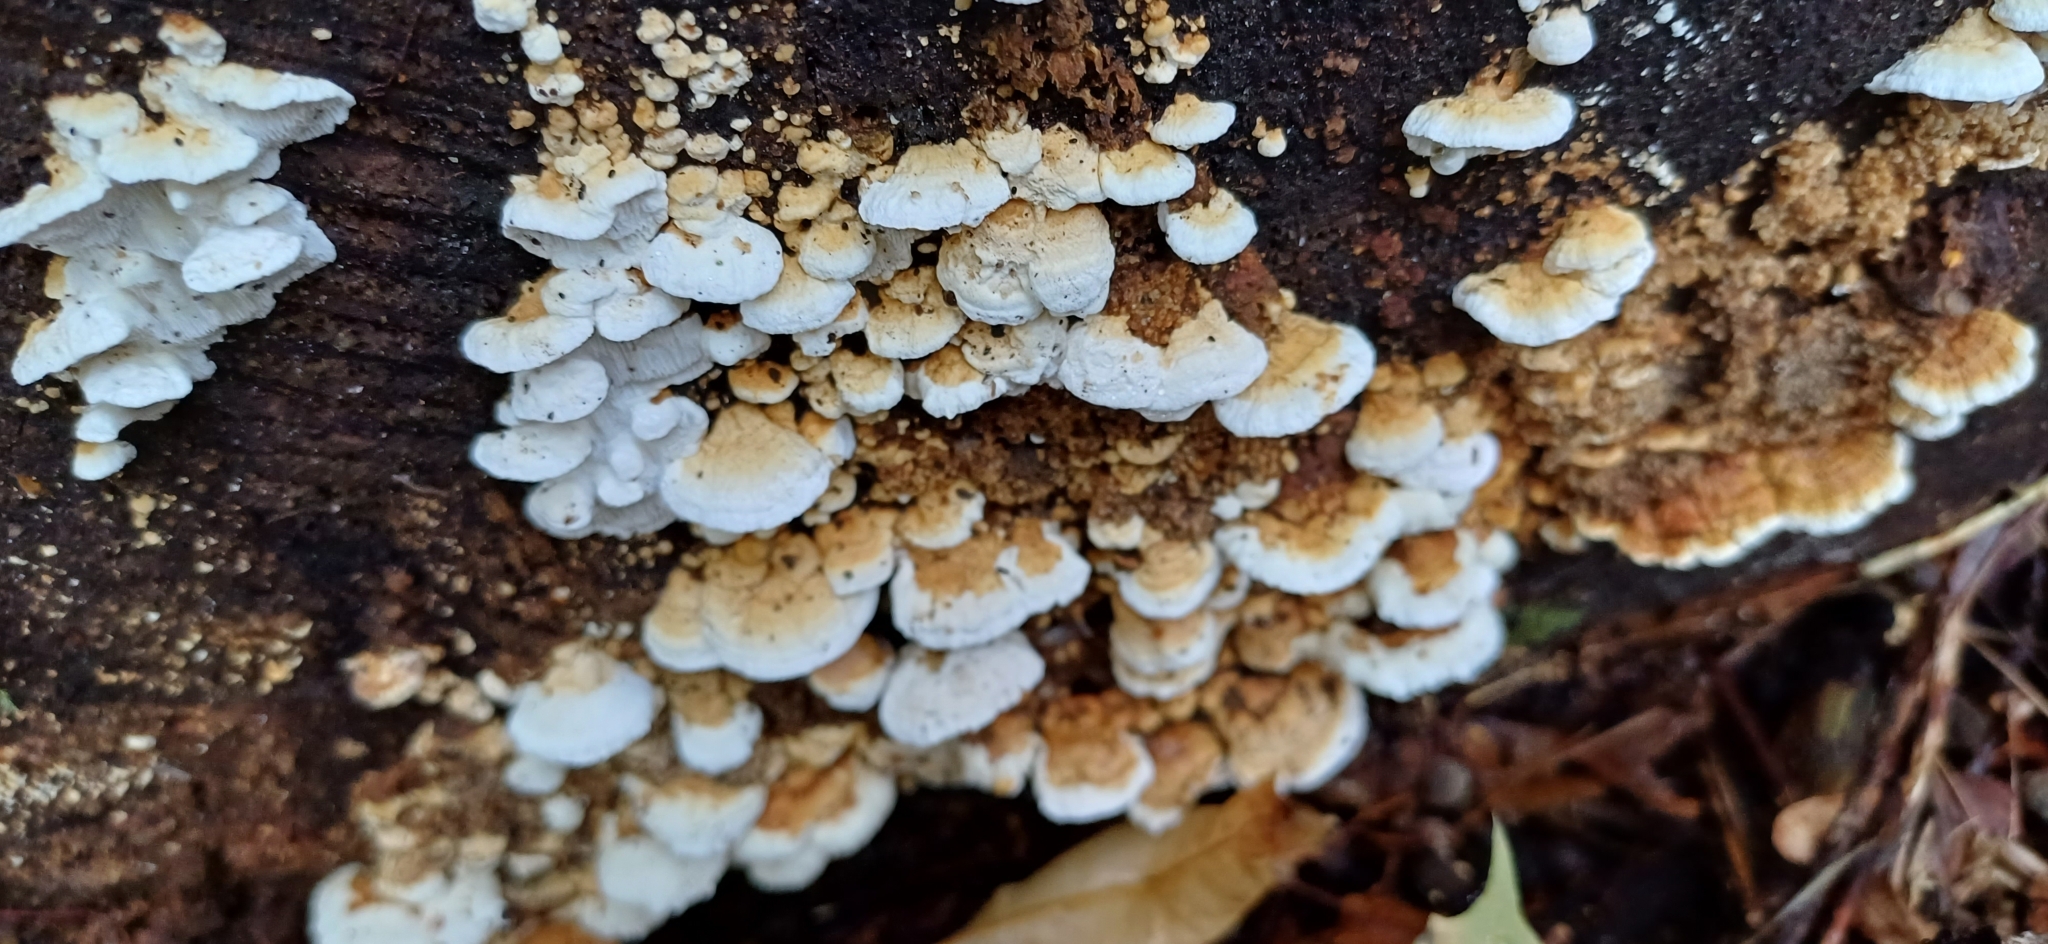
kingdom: Fungi
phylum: Basidiomycota
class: Agaricomycetes
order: Polyporales
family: Fomitopsidaceae
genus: Neoantrodia
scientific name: Neoantrodia serialis
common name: Serried porecrust
